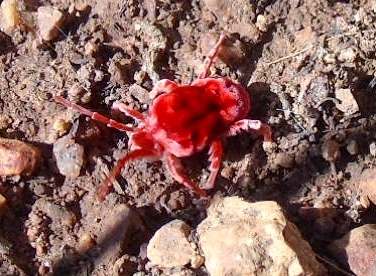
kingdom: Animalia
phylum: Arthropoda
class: Arachnida
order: Trombidiformes
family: Leeuwenhoekiidae
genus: Dinothrombium
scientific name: Dinothrombium
